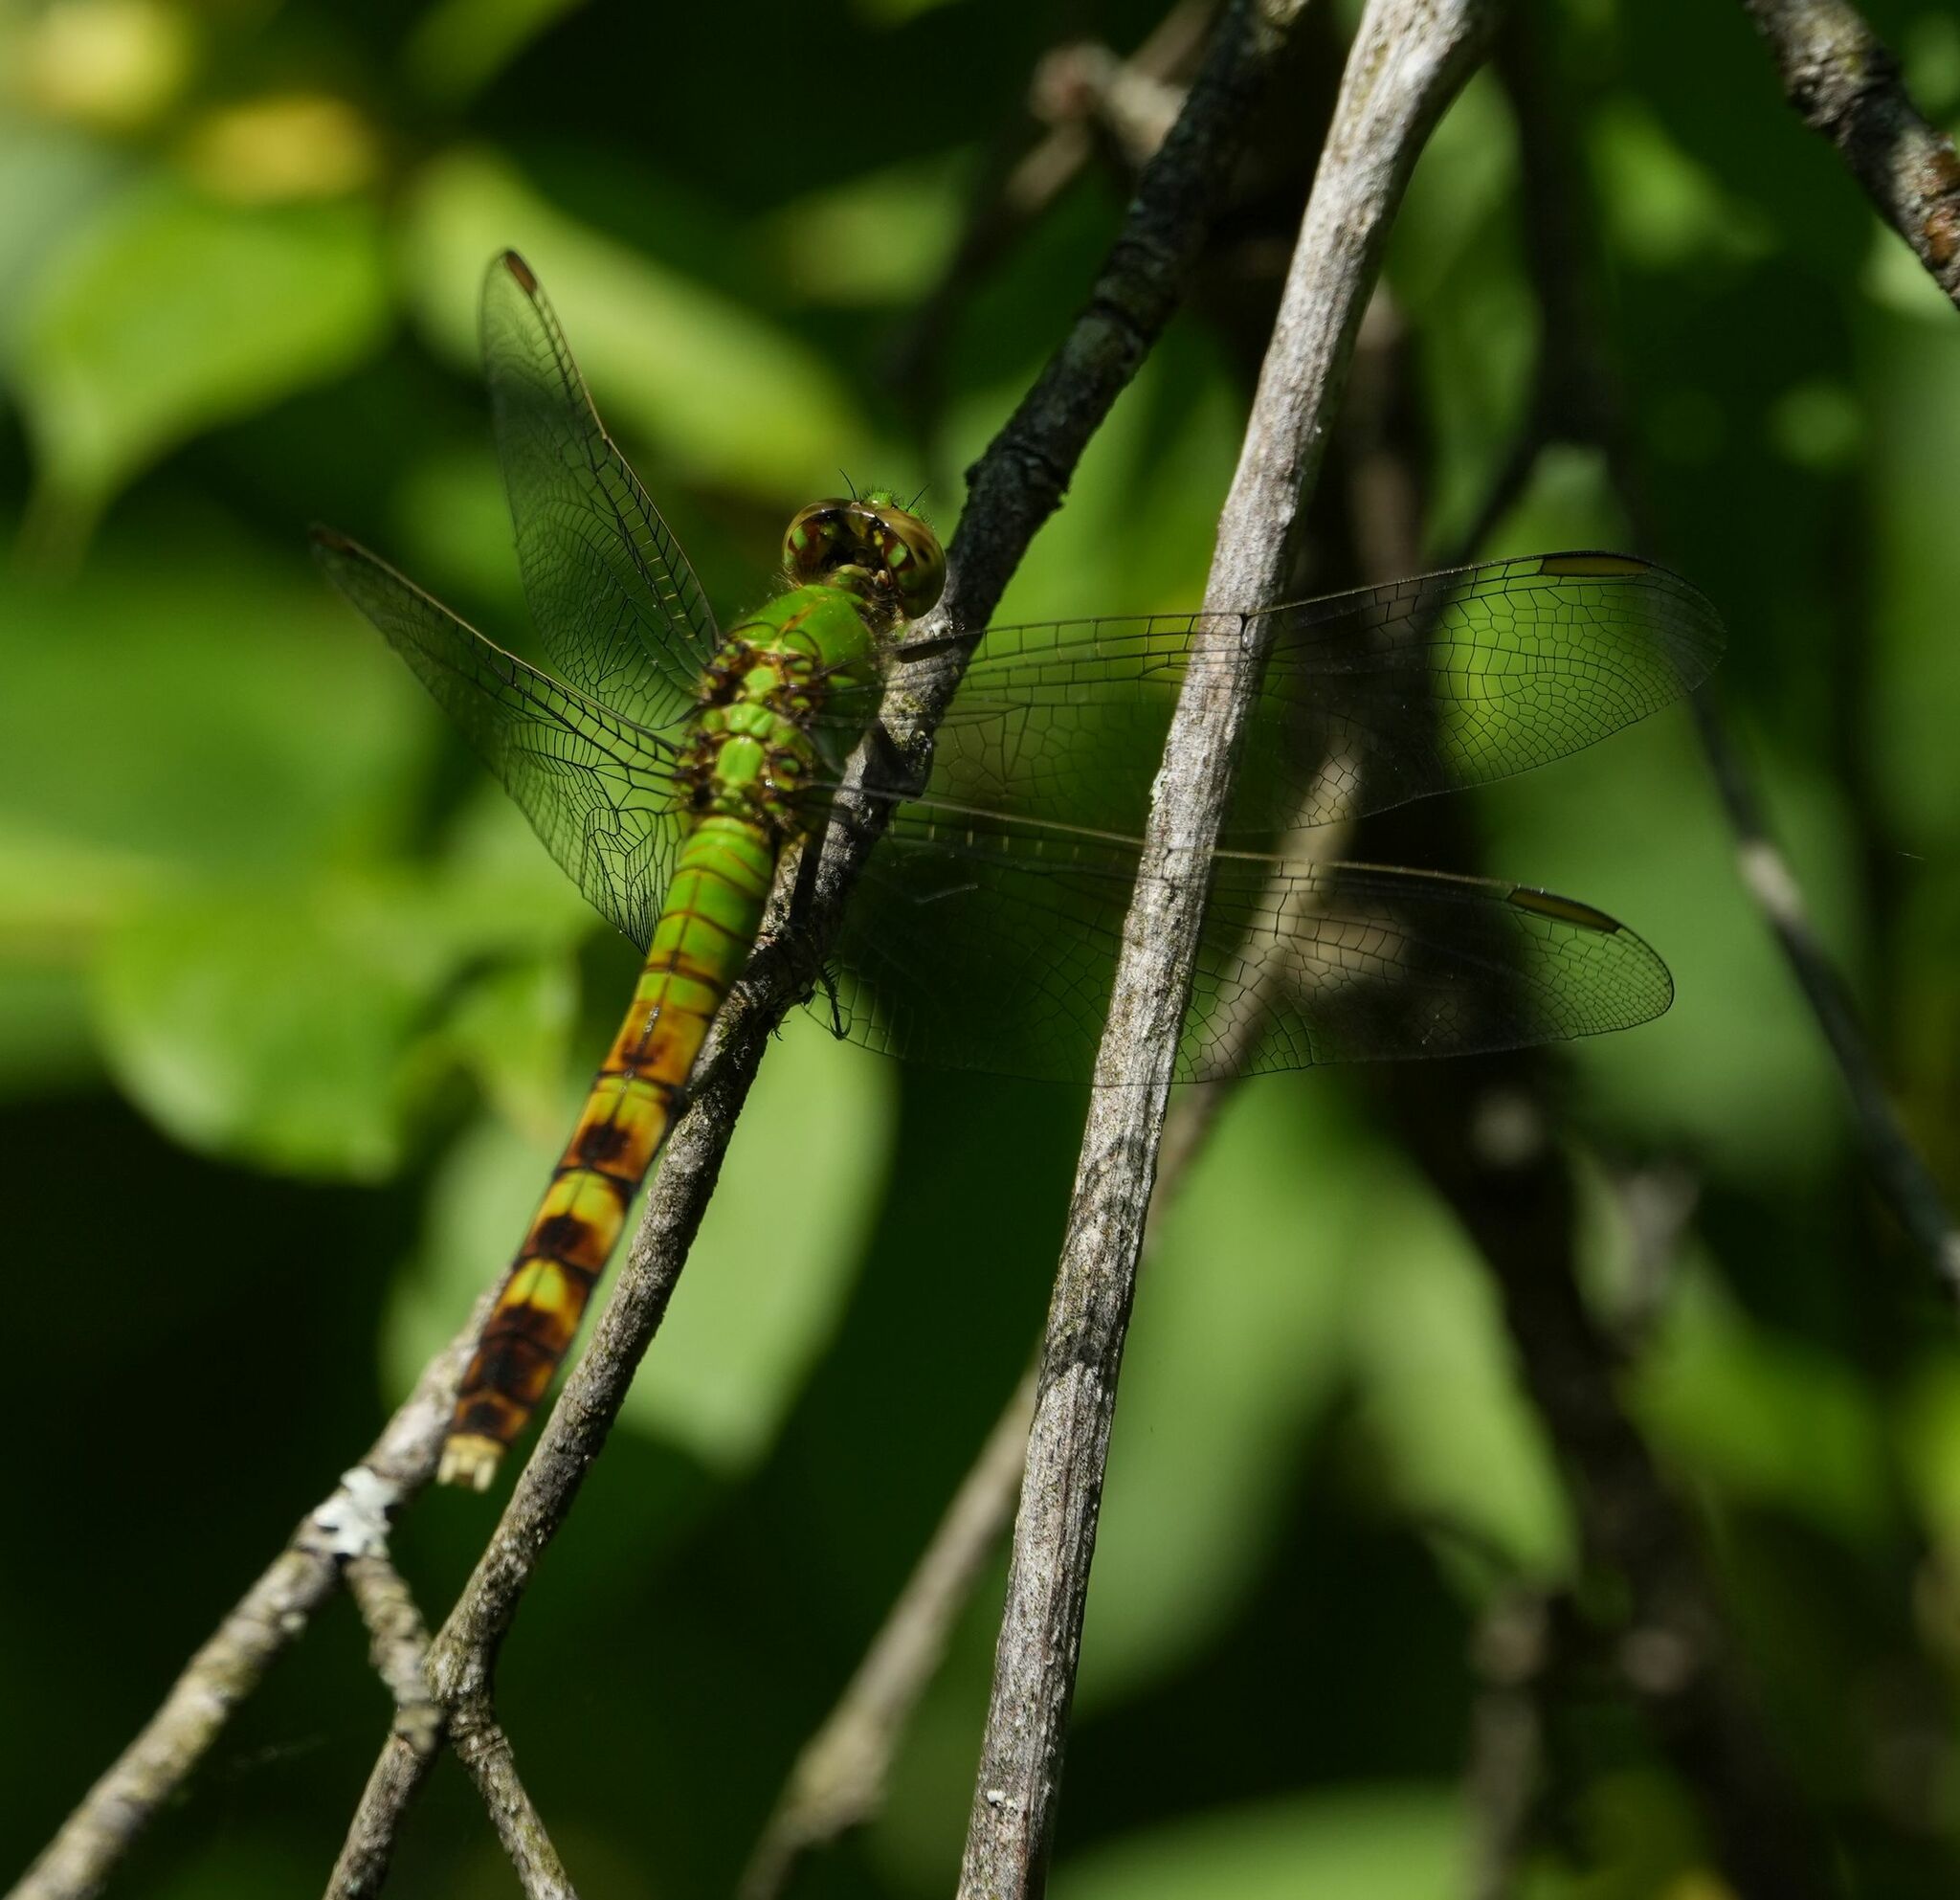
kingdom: Animalia
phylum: Arthropoda
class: Insecta
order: Odonata
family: Libellulidae
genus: Erythemis
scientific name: Erythemis simplicicollis
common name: Eastern pondhawk
